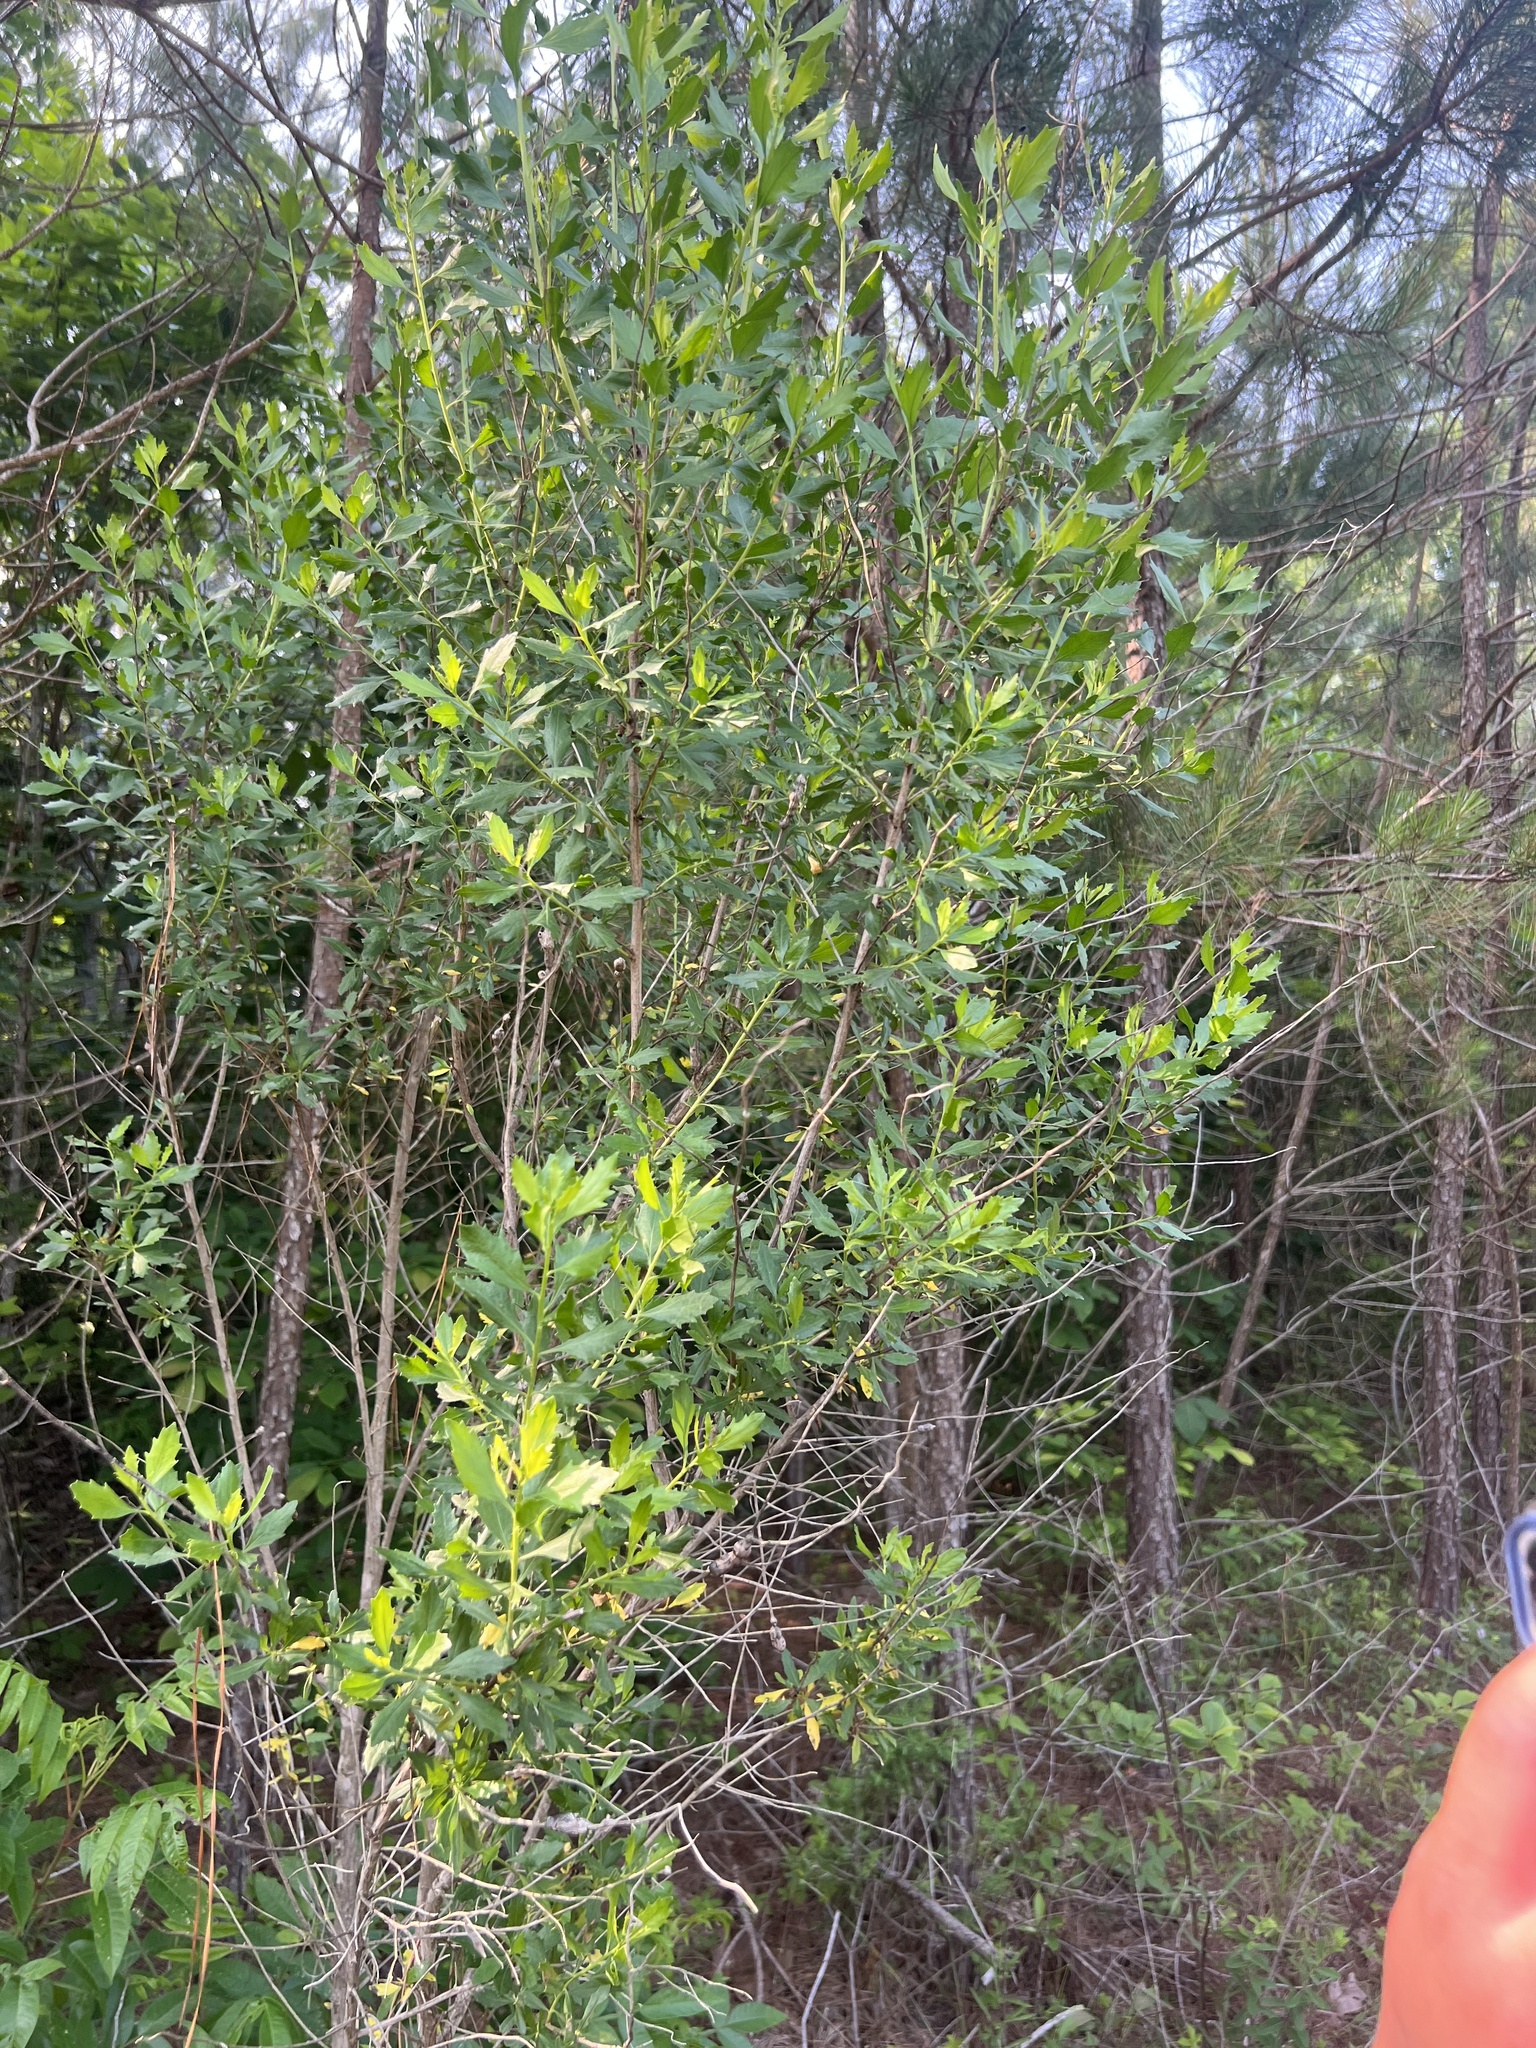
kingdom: Plantae
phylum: Tracheophyta
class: Magnoliopsida
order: Asterales
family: Asteraceae
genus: Baccharis
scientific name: Baccharis halimifolia
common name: Eastern baccharis
